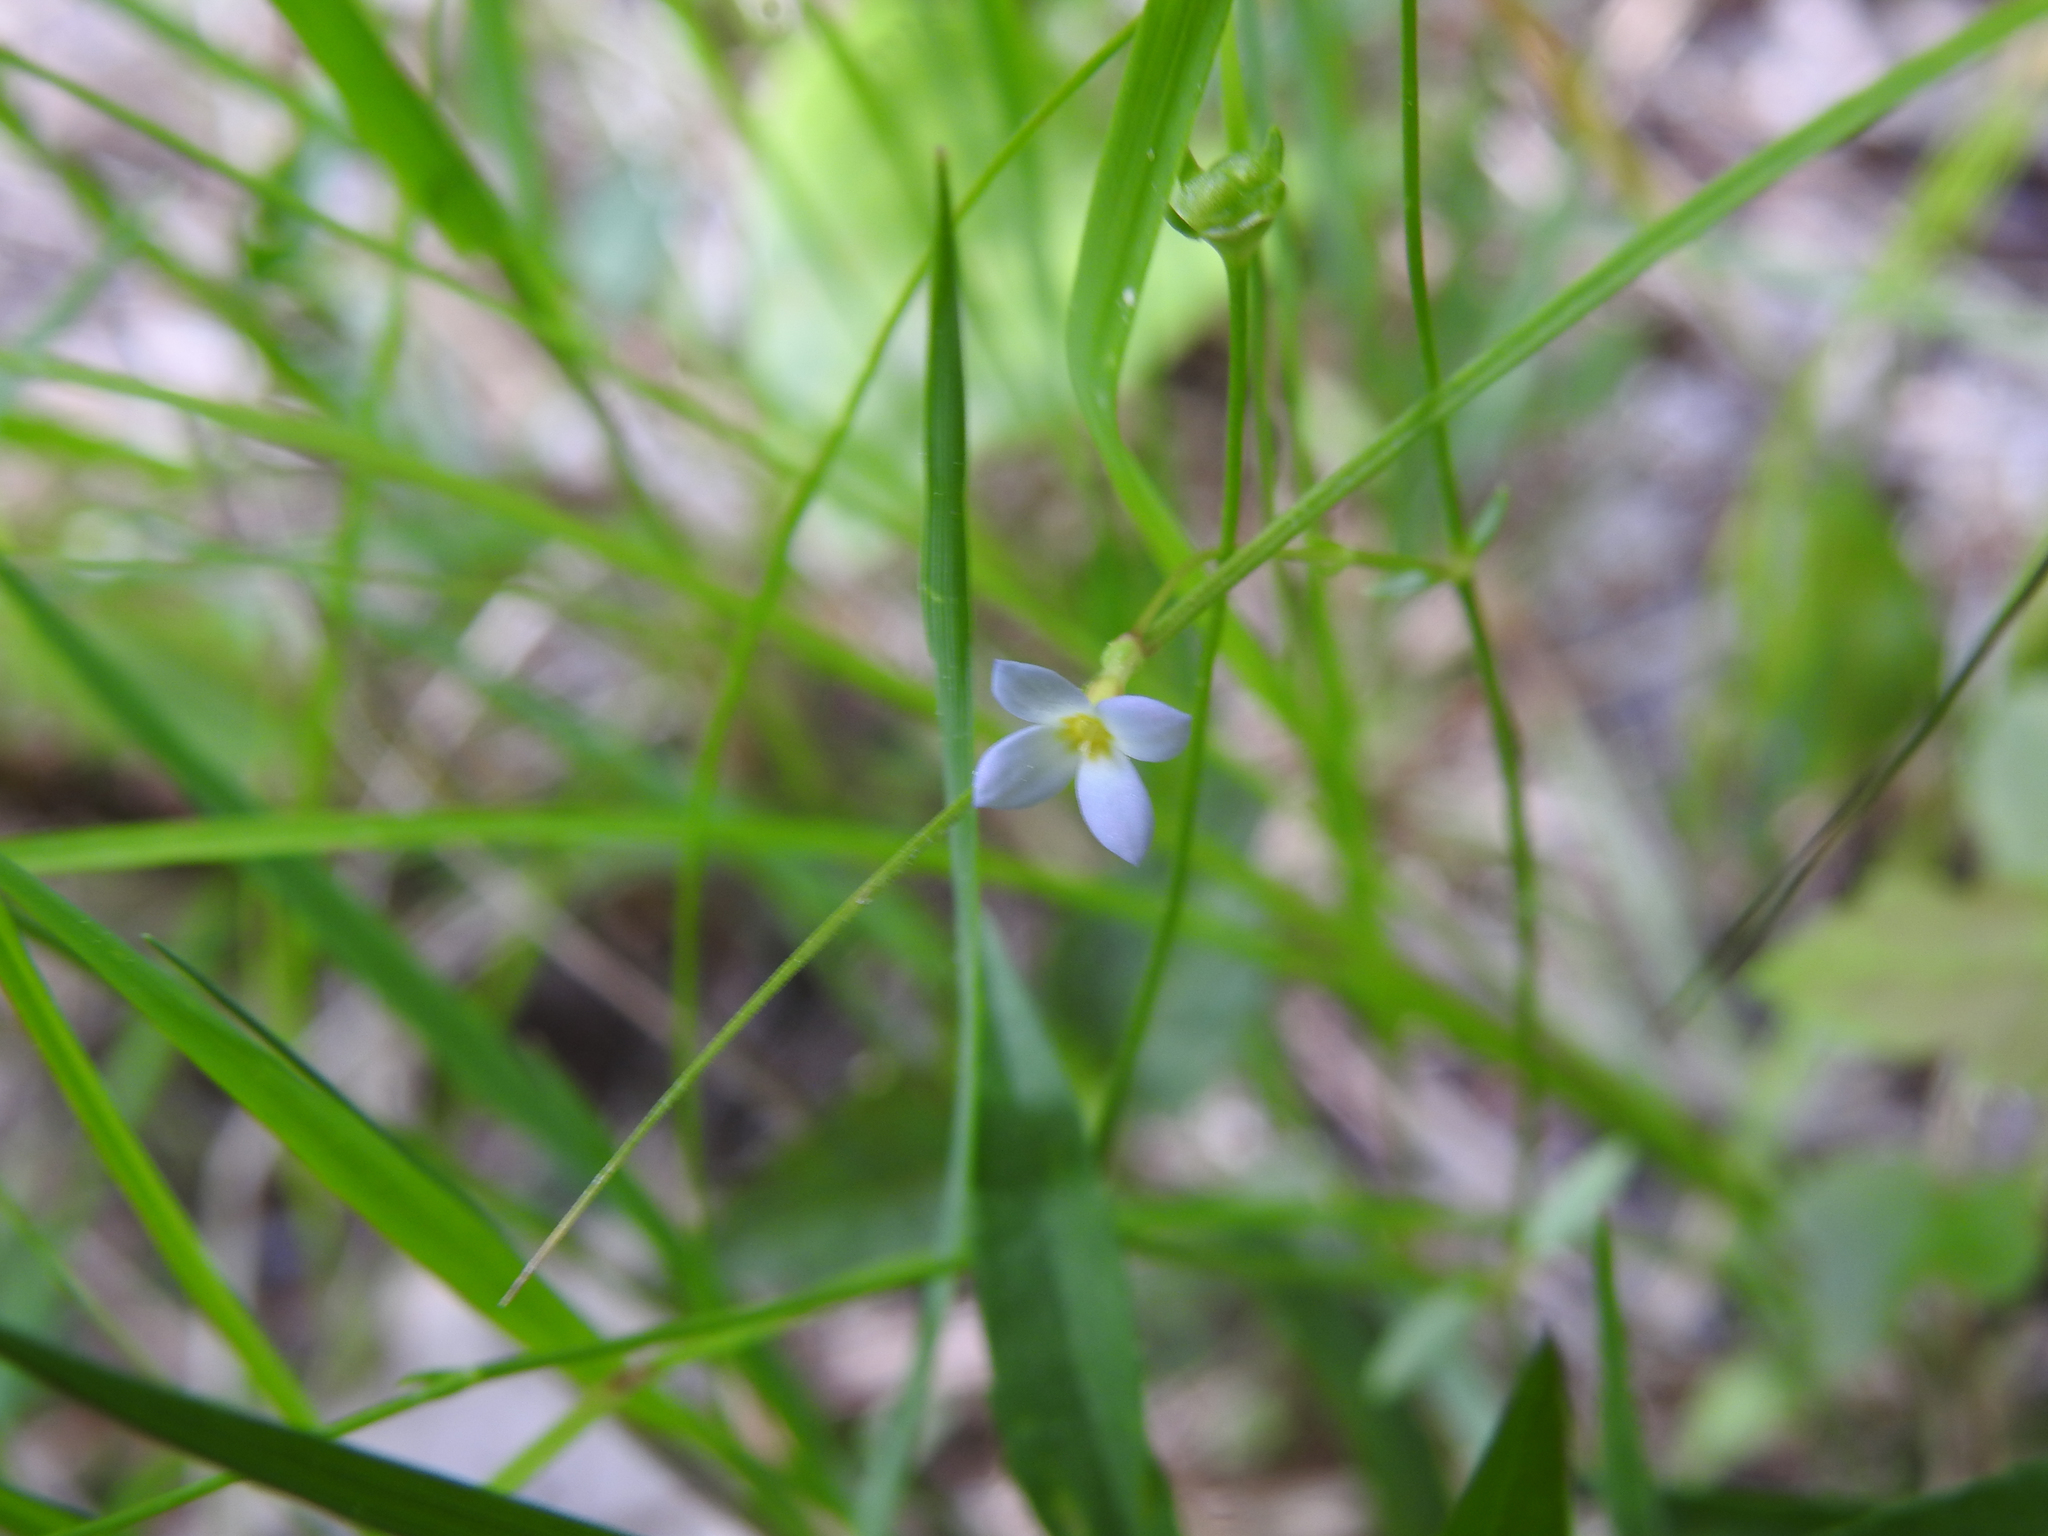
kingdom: Plantae
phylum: Tracheophyta
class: Magnoliopsida
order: Gentianales
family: Rubiaceae
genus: Houstonia
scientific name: Houstonia caerulea
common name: Bluets
